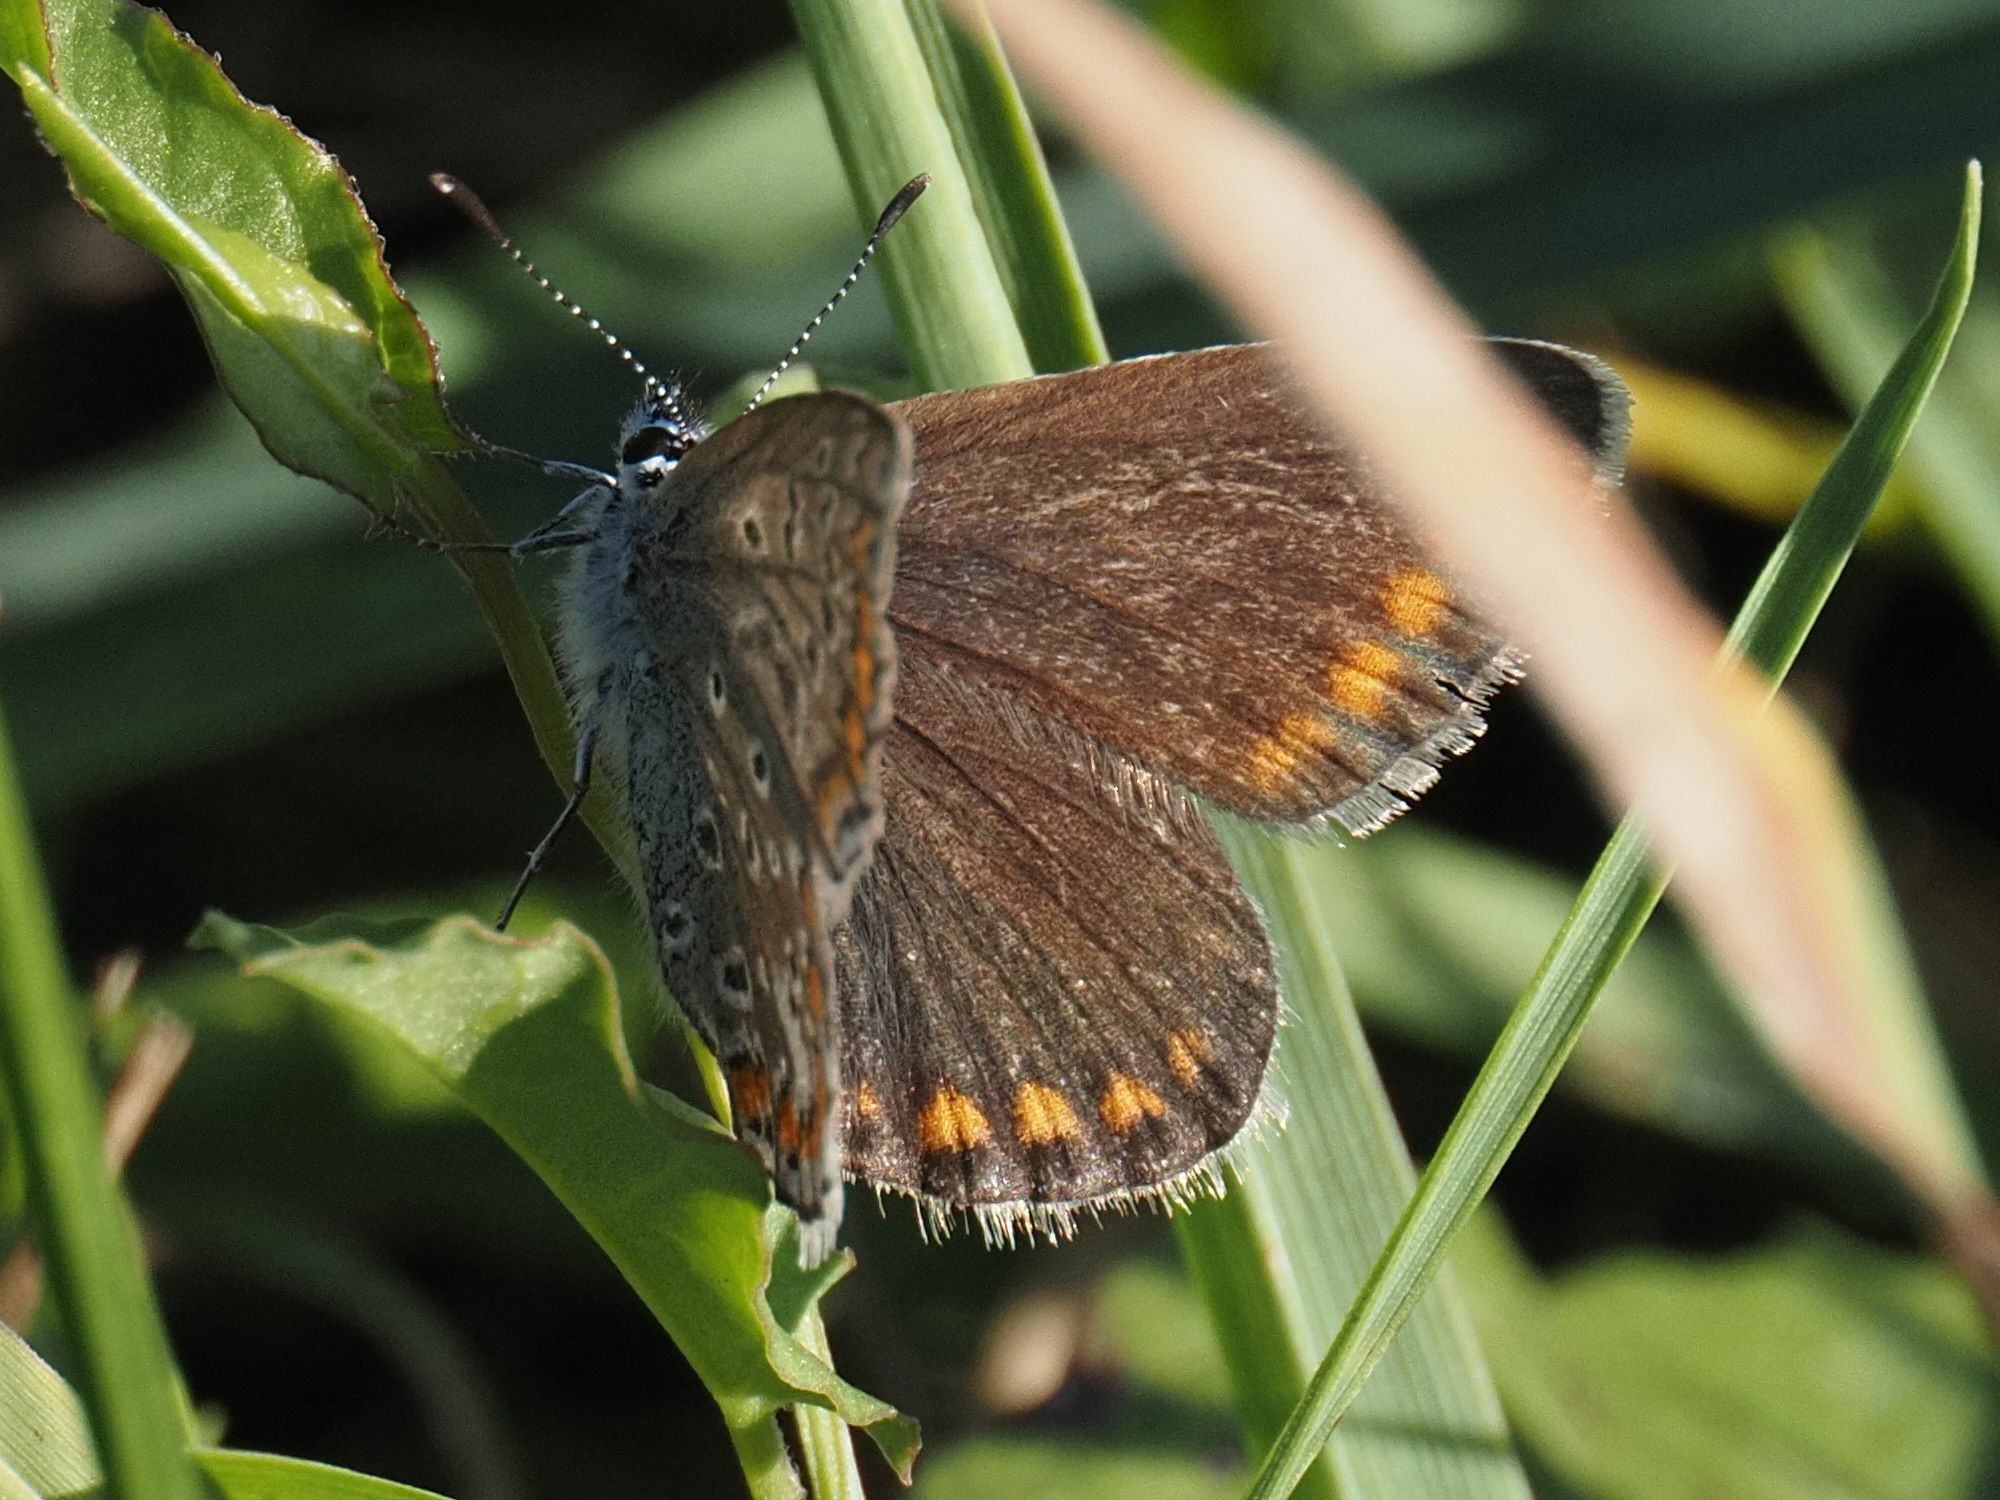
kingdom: Animalia
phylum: Arthropoda
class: Insecta
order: Lepidoptera
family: Lycaenidae
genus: Polyommatus
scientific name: Polyommatus icarus
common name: Common blue
